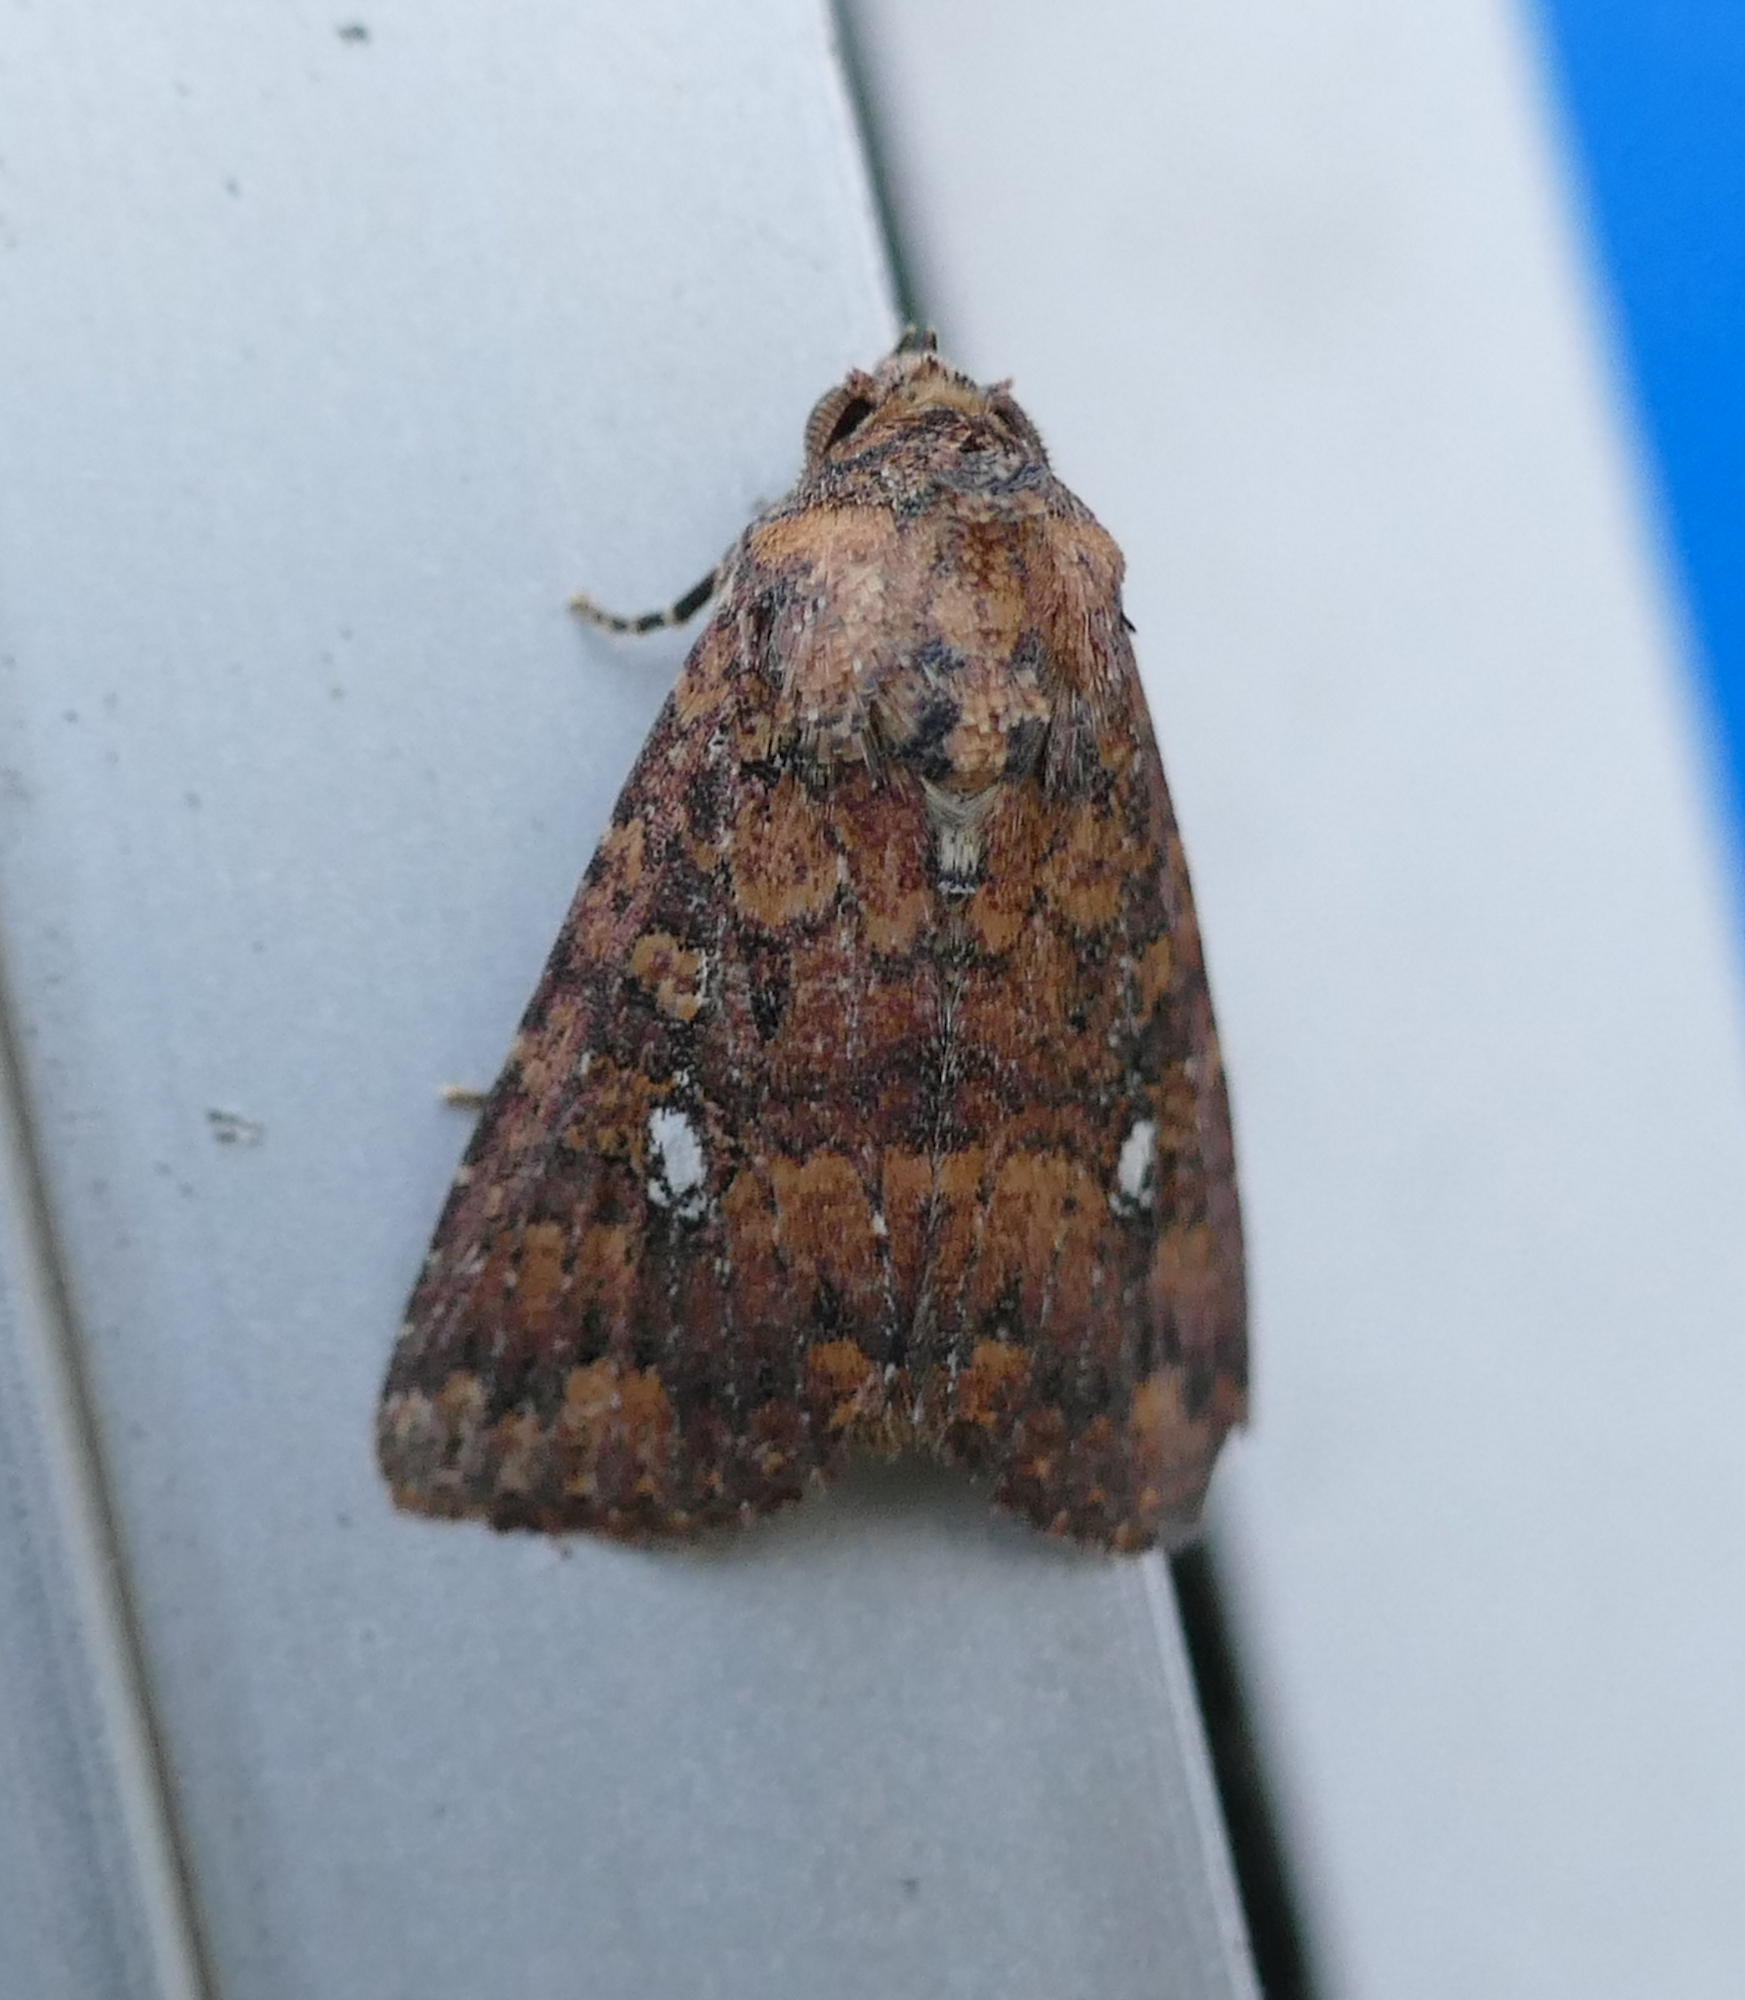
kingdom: Animalia
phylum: Arthropoda
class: Insecta
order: Lepidoptera
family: Noctuidae
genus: Condica
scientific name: Condica mobilis
